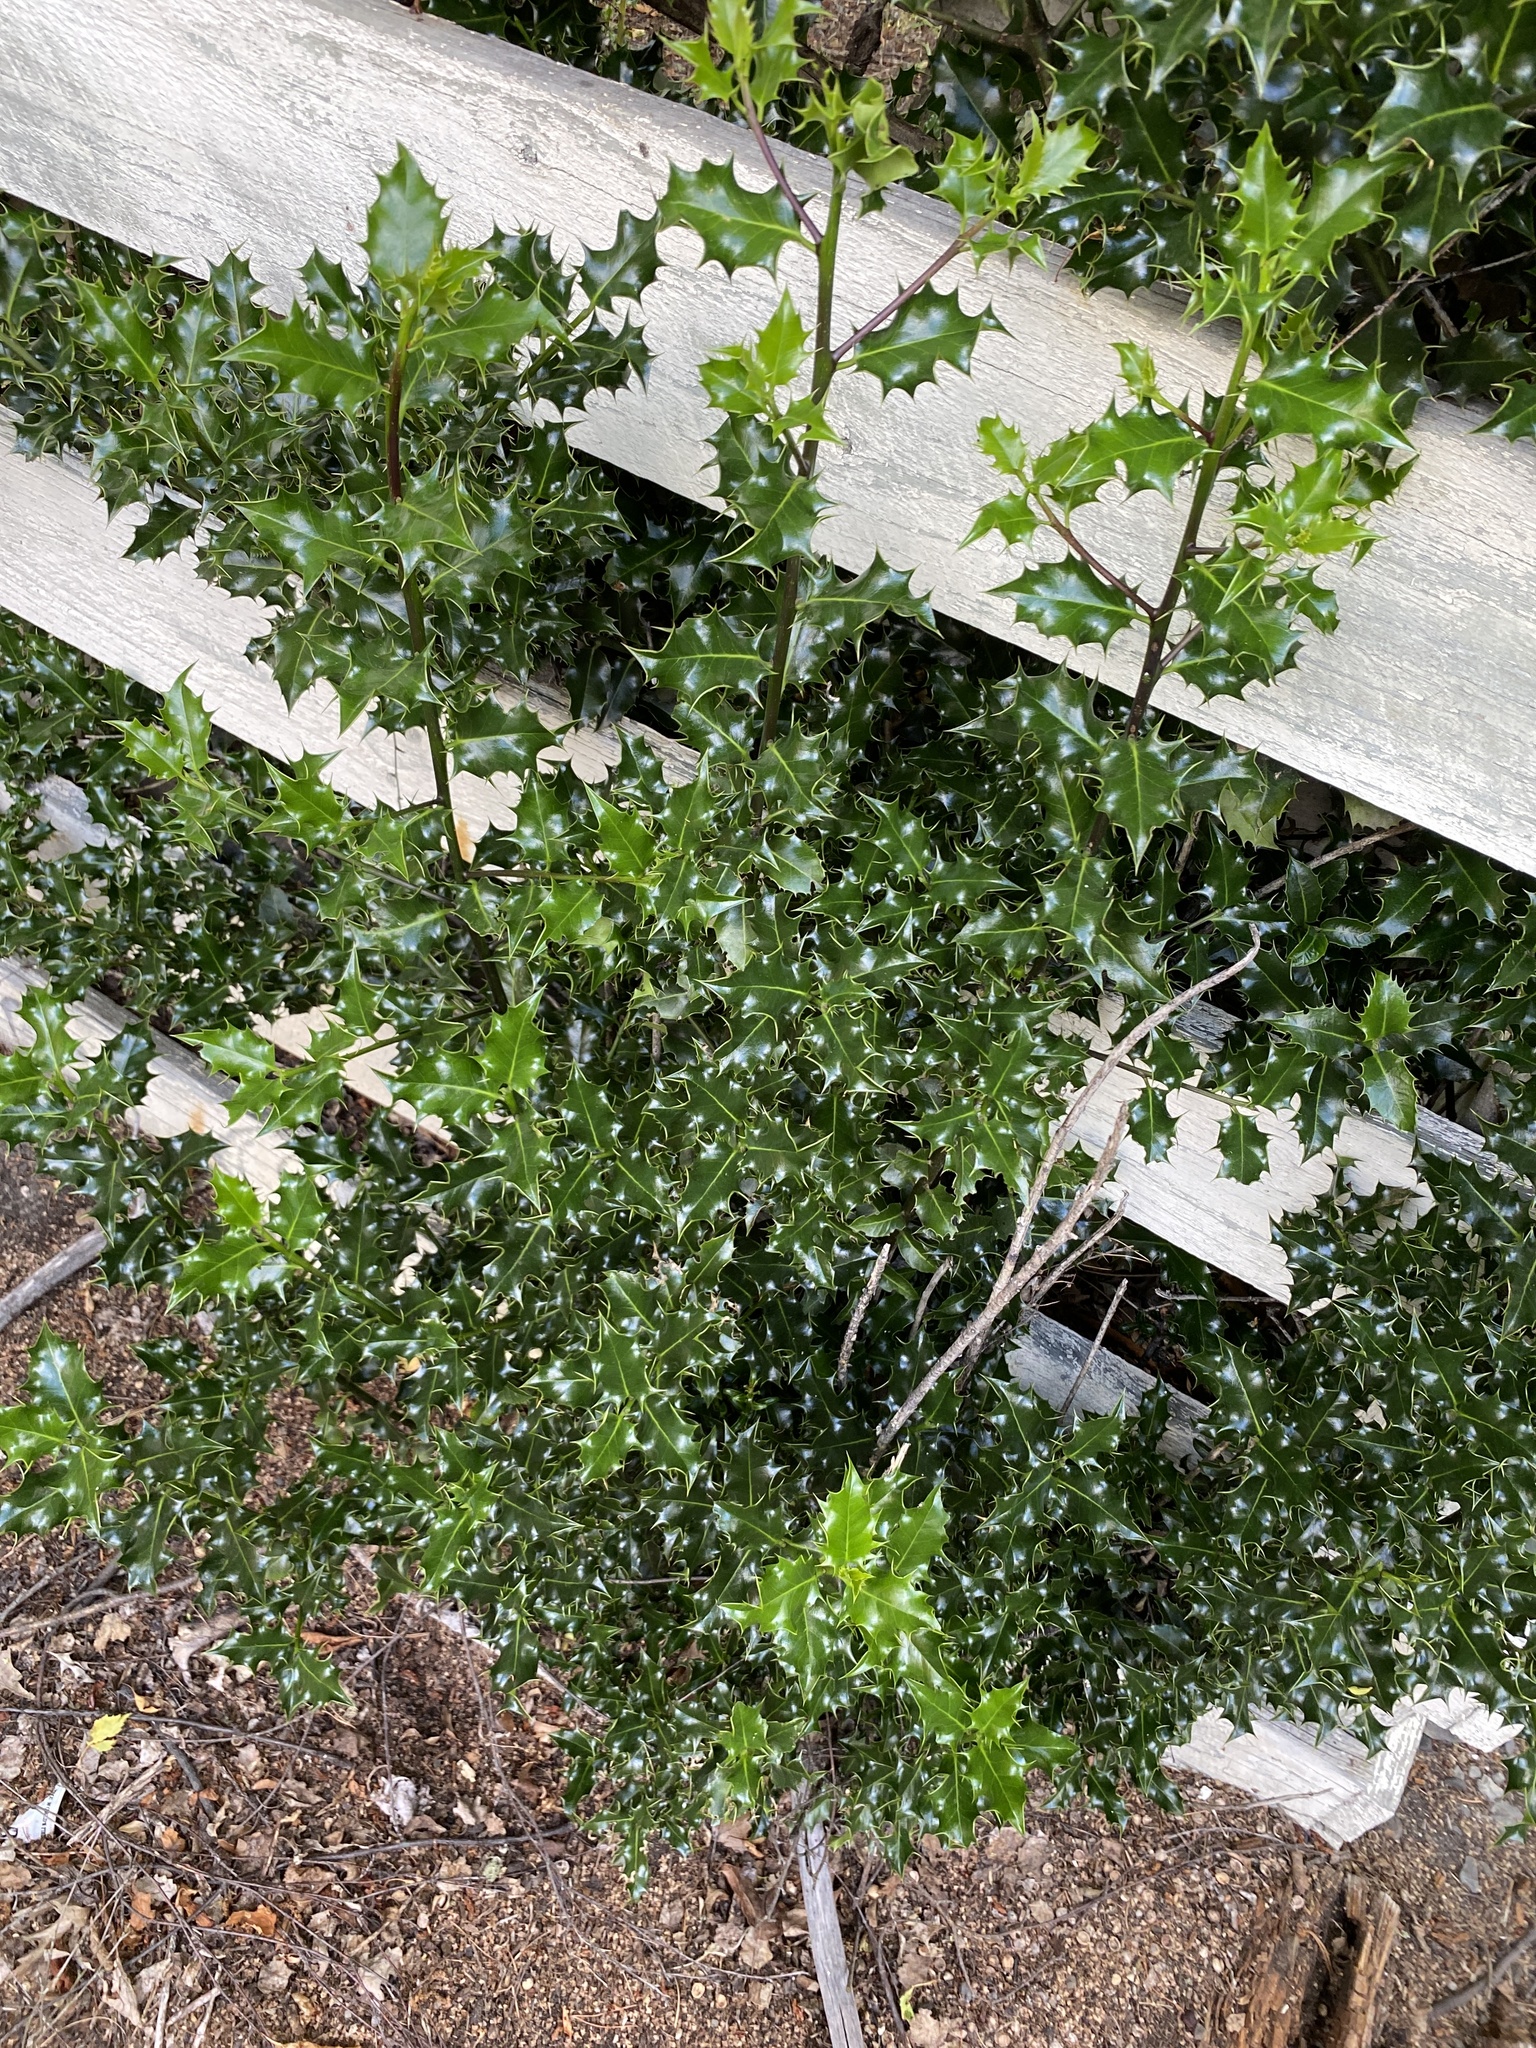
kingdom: Plantae
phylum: Tracheophyta
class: Magnoliopsida
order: Aquifoliales
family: Aquifoliaceae
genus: Ilex
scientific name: Ilex aquifolium
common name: English holly
